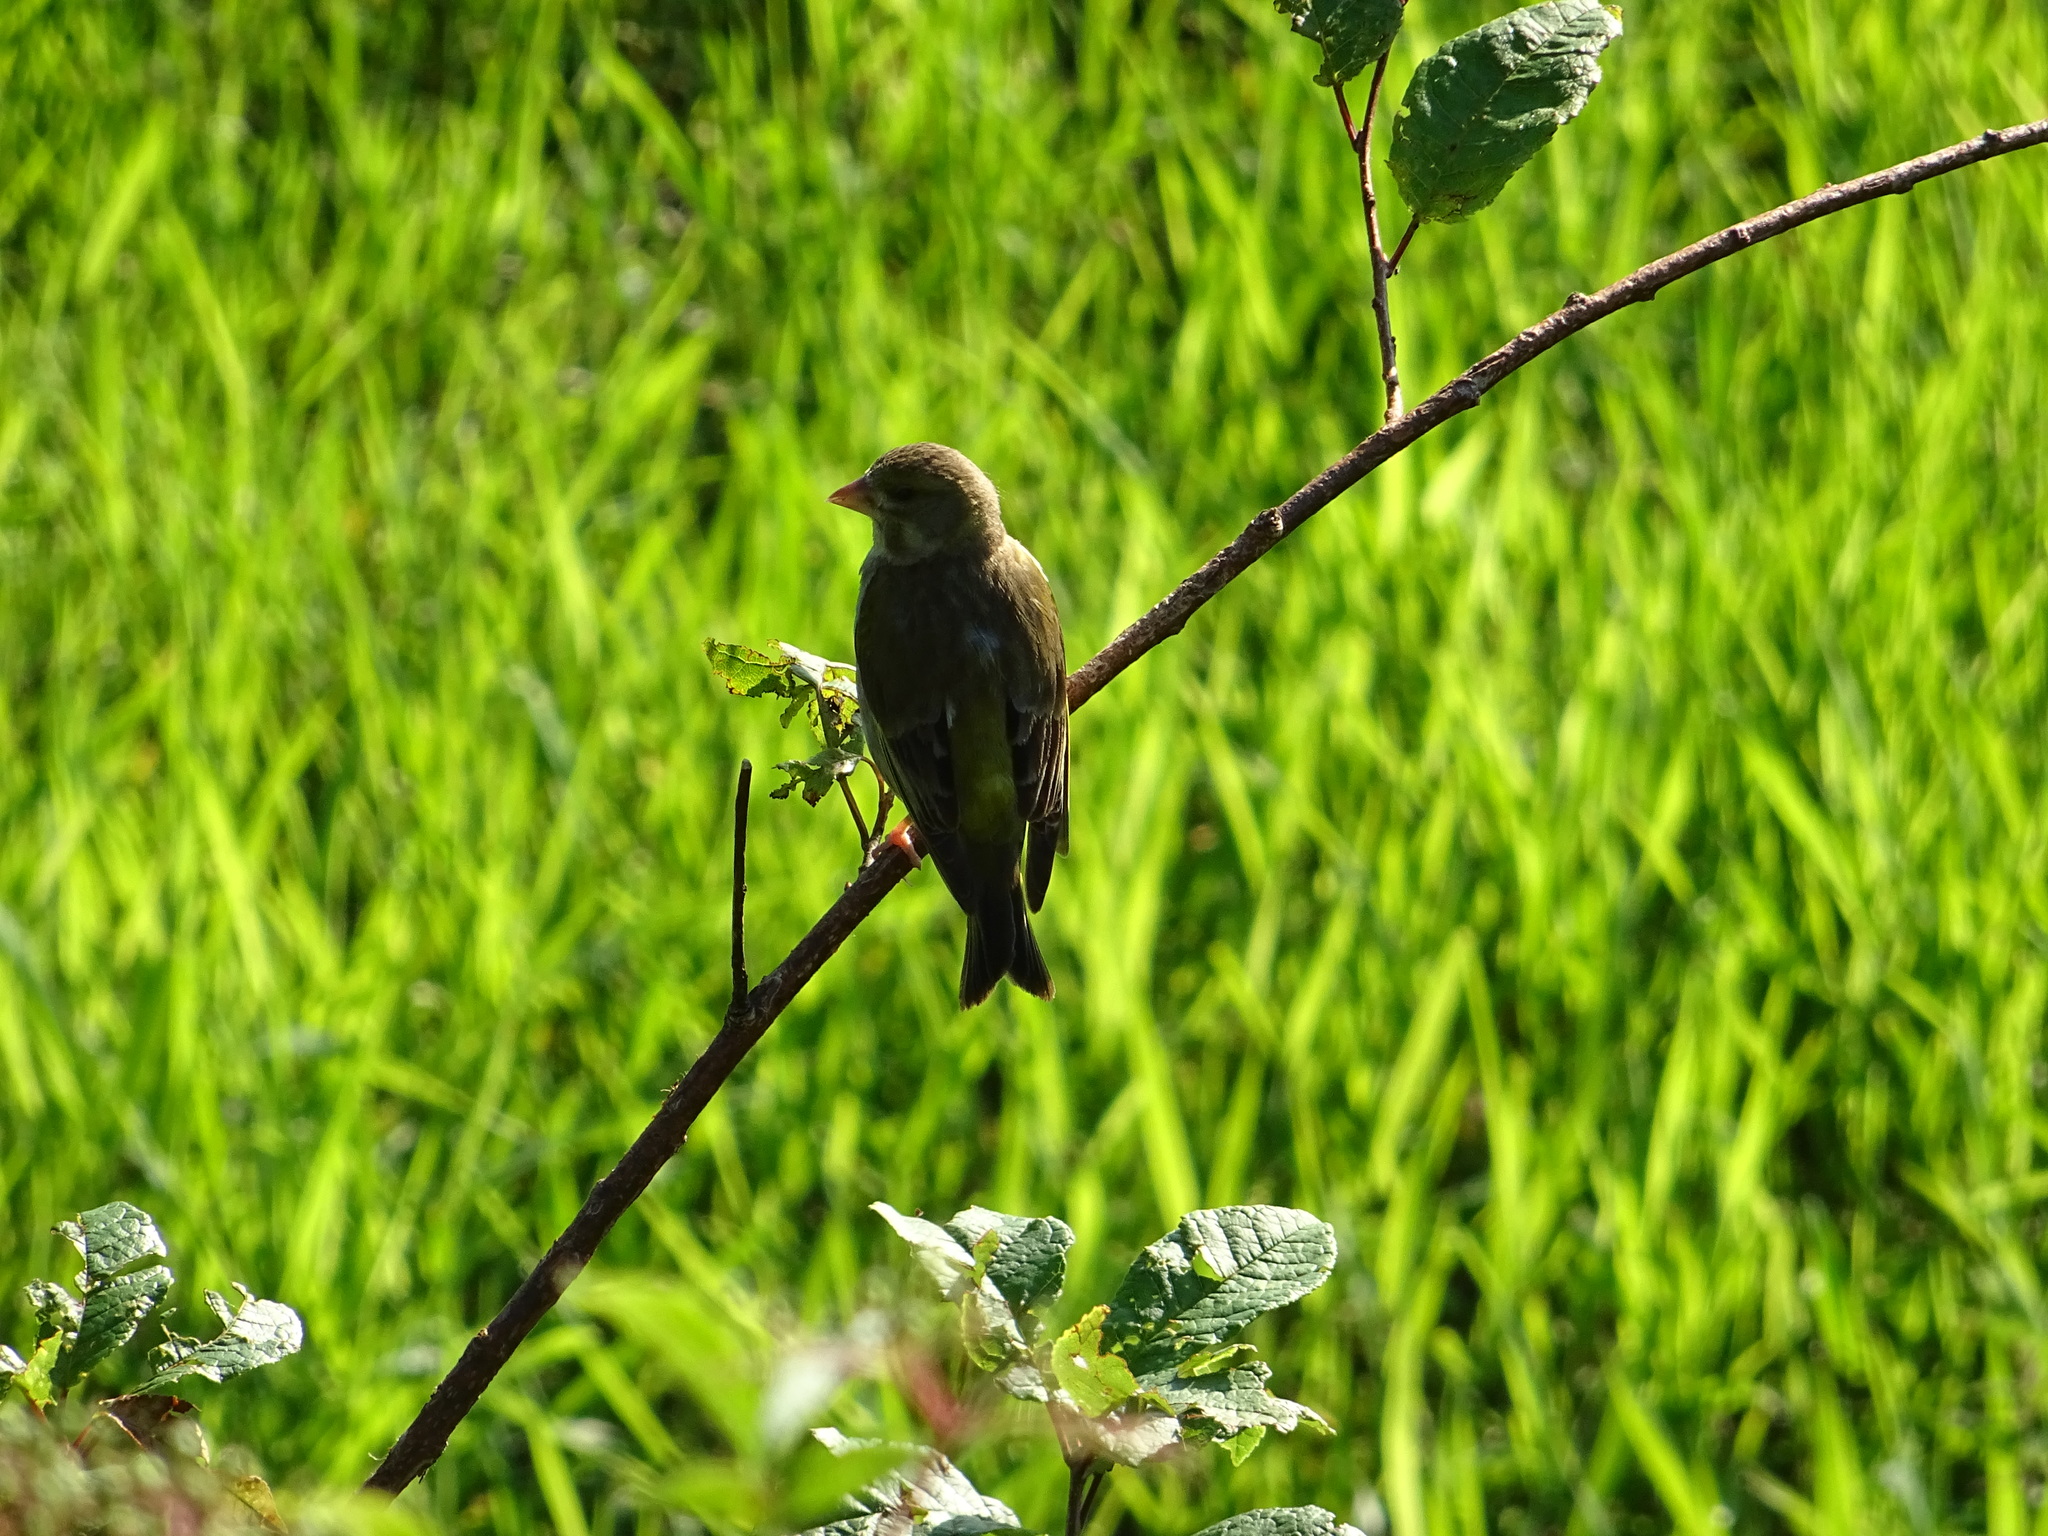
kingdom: Plantae
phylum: Tracheophyta
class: Liliopsida
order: Poales
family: Poaceae
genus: Chloris
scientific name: Chloris chloris
